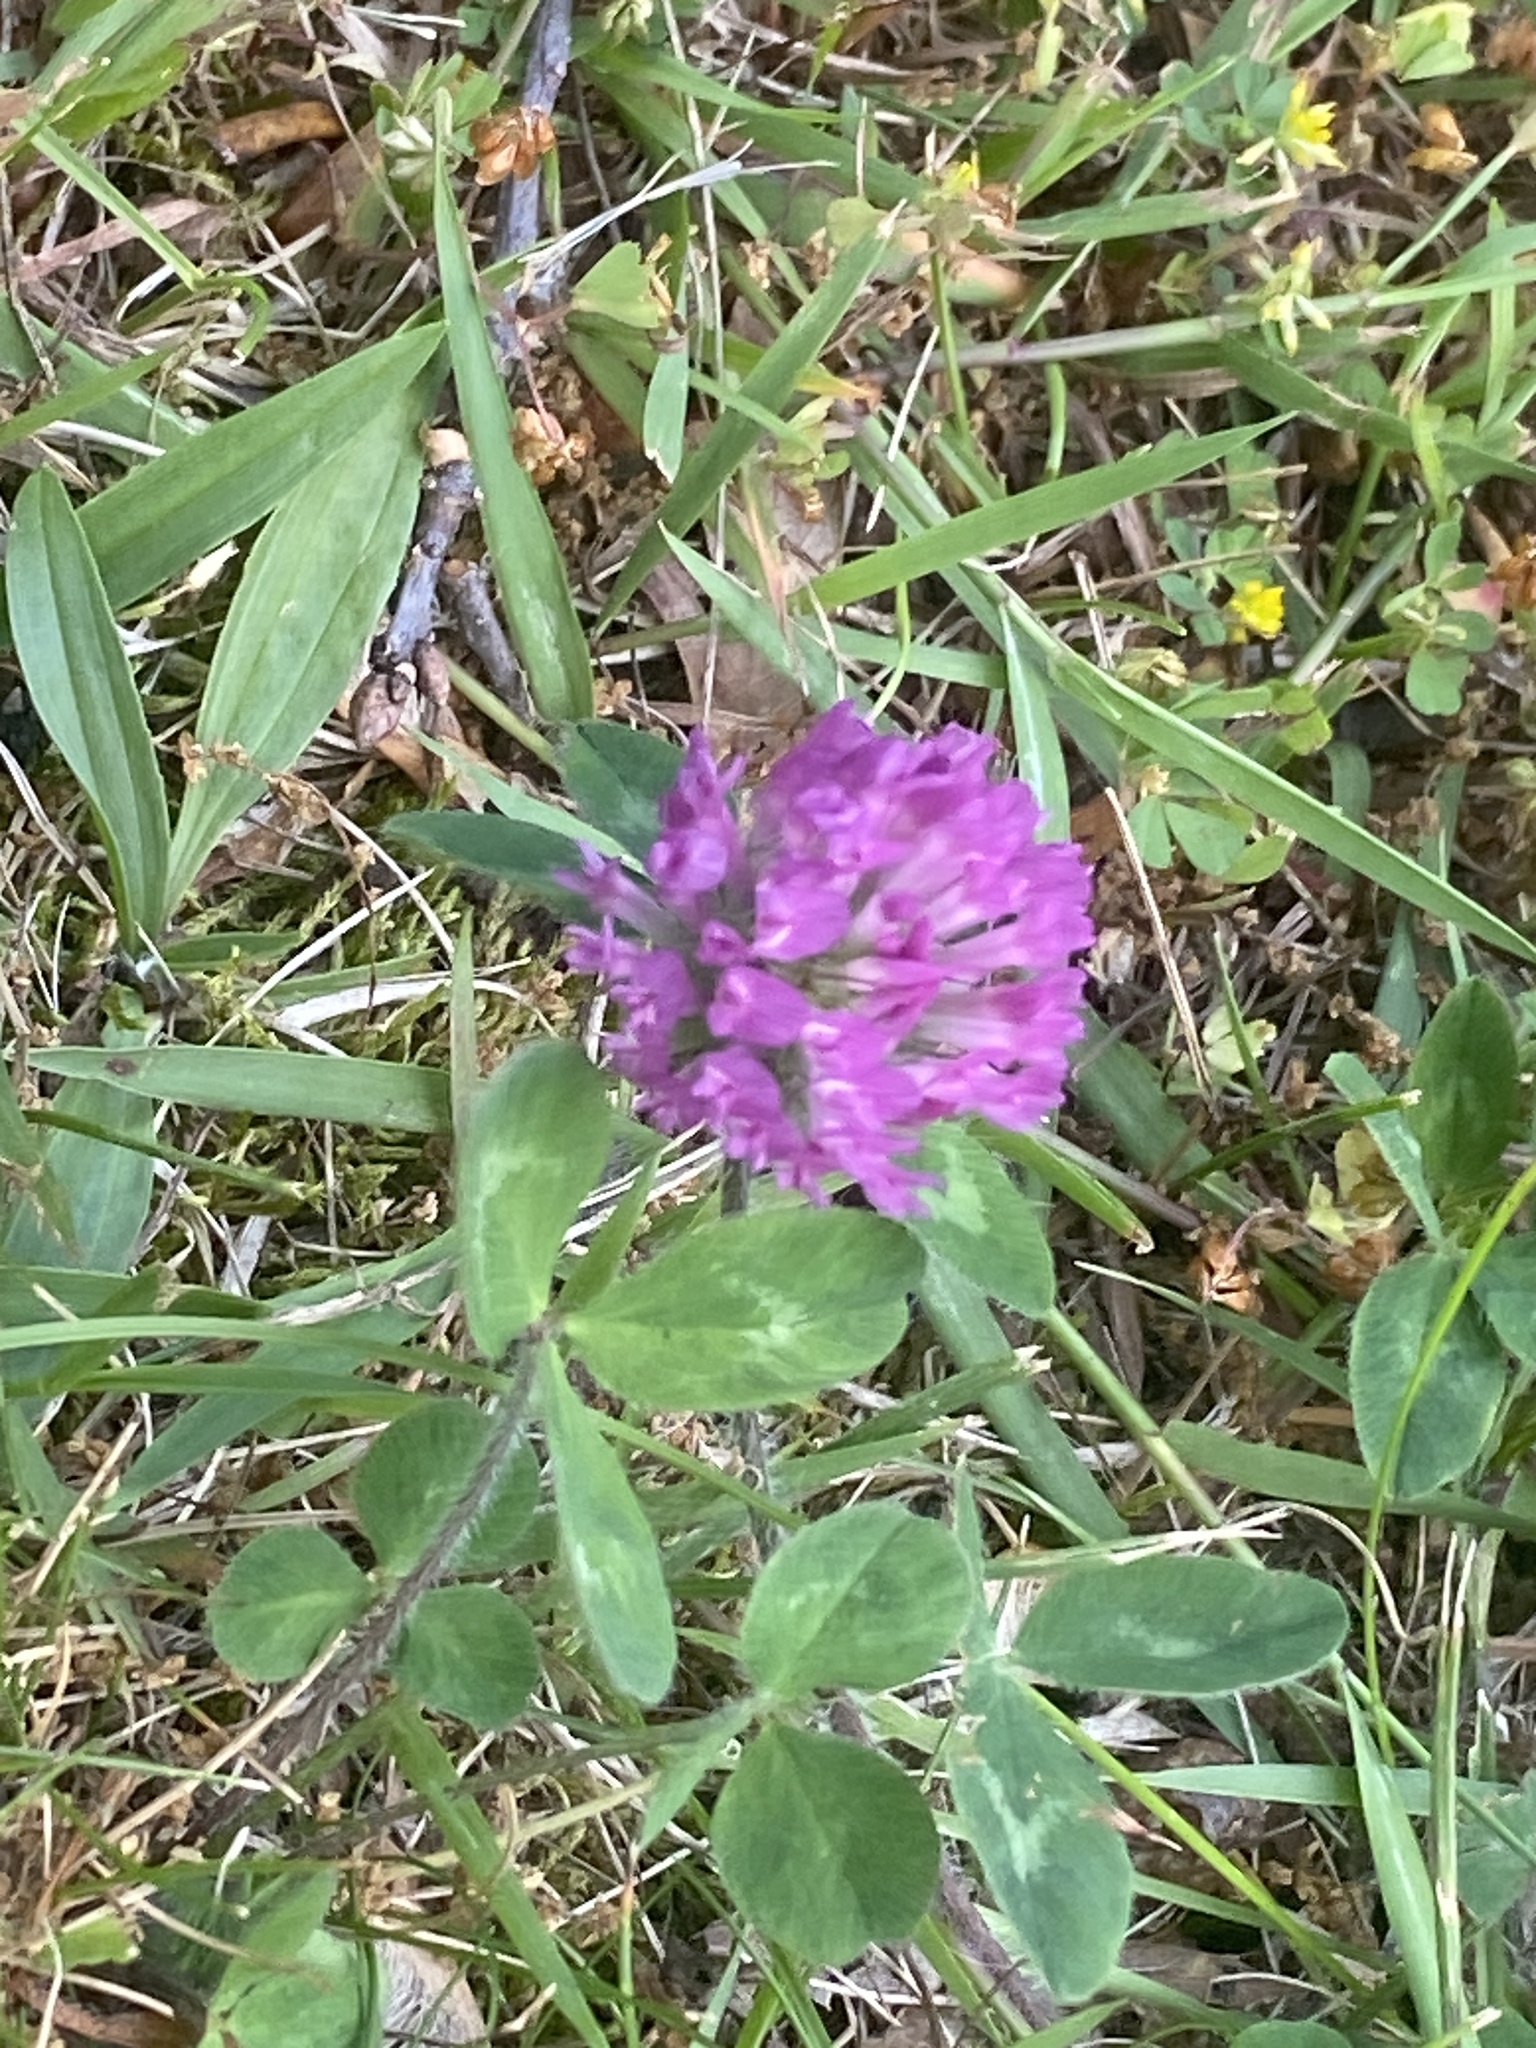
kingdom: Plantae
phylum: Tracheophyta
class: Magnoliopsida
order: Fabales
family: Fabaceae
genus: Trifolium
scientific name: Trifolium pratense
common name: Red clover
